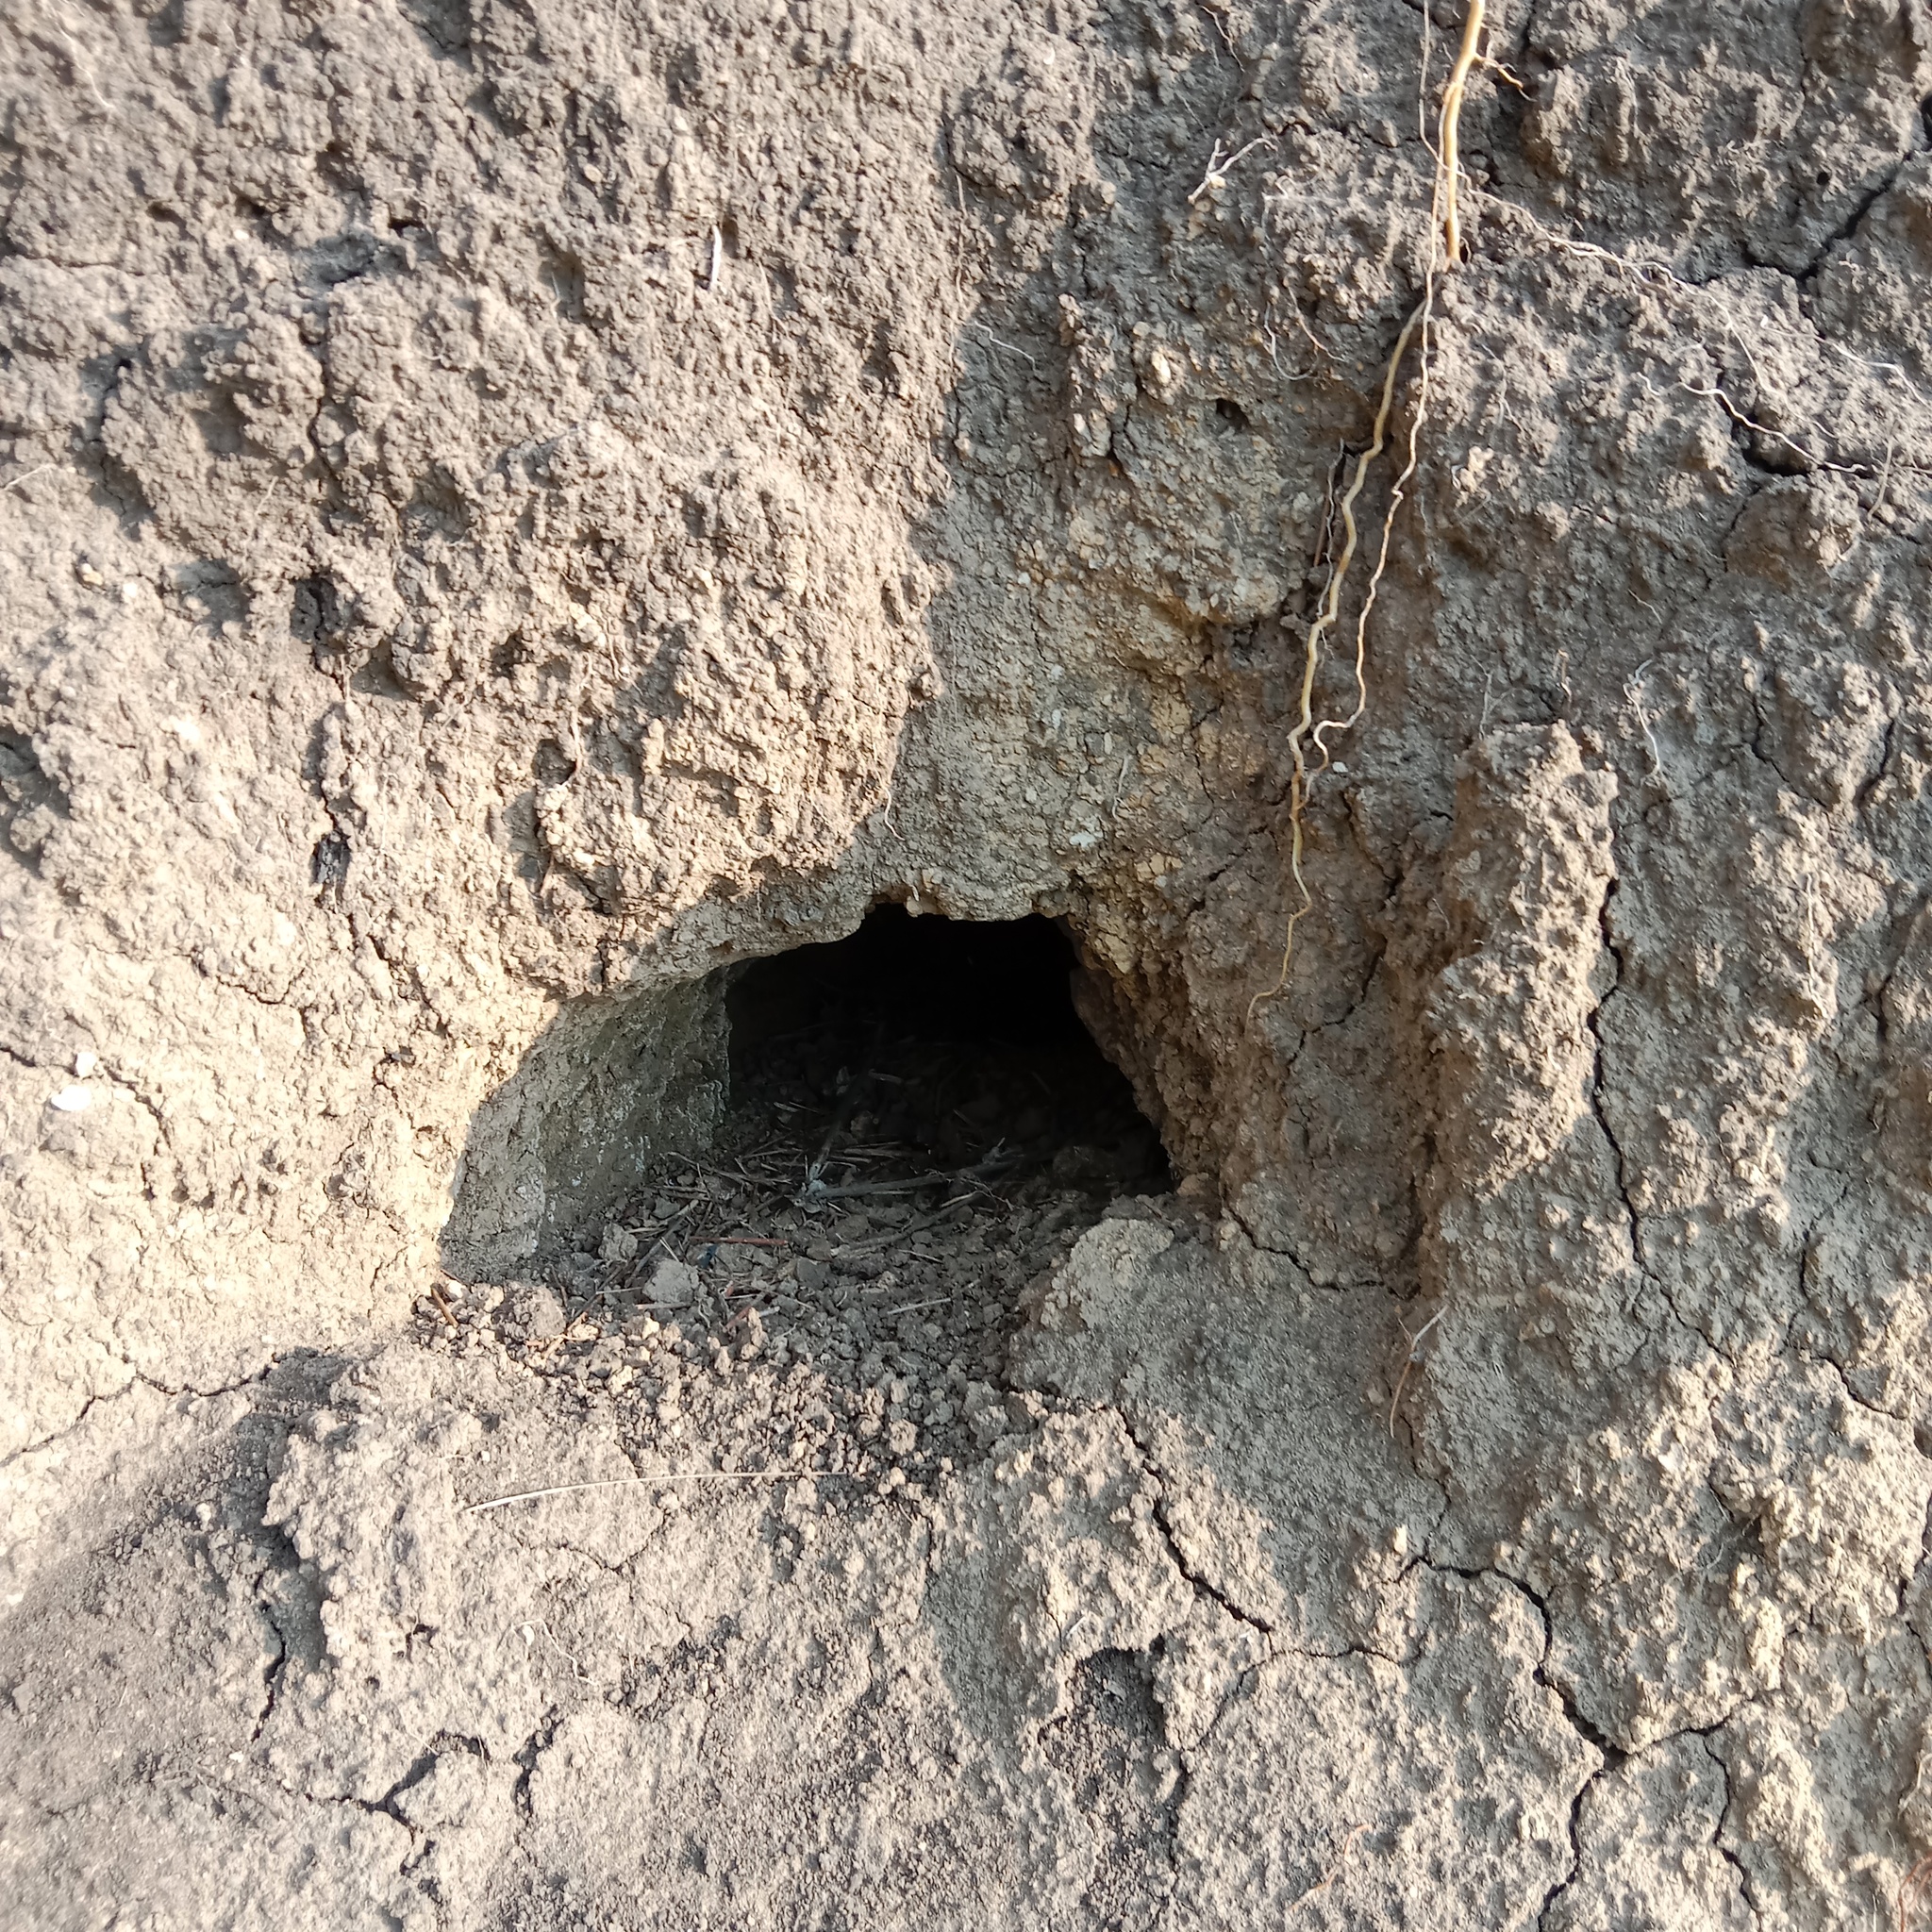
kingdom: Animalia
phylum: Chordata
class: Aves
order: Coraciiformes
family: Meropidae
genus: Merops
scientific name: Merops apiaster
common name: European bee-eater
